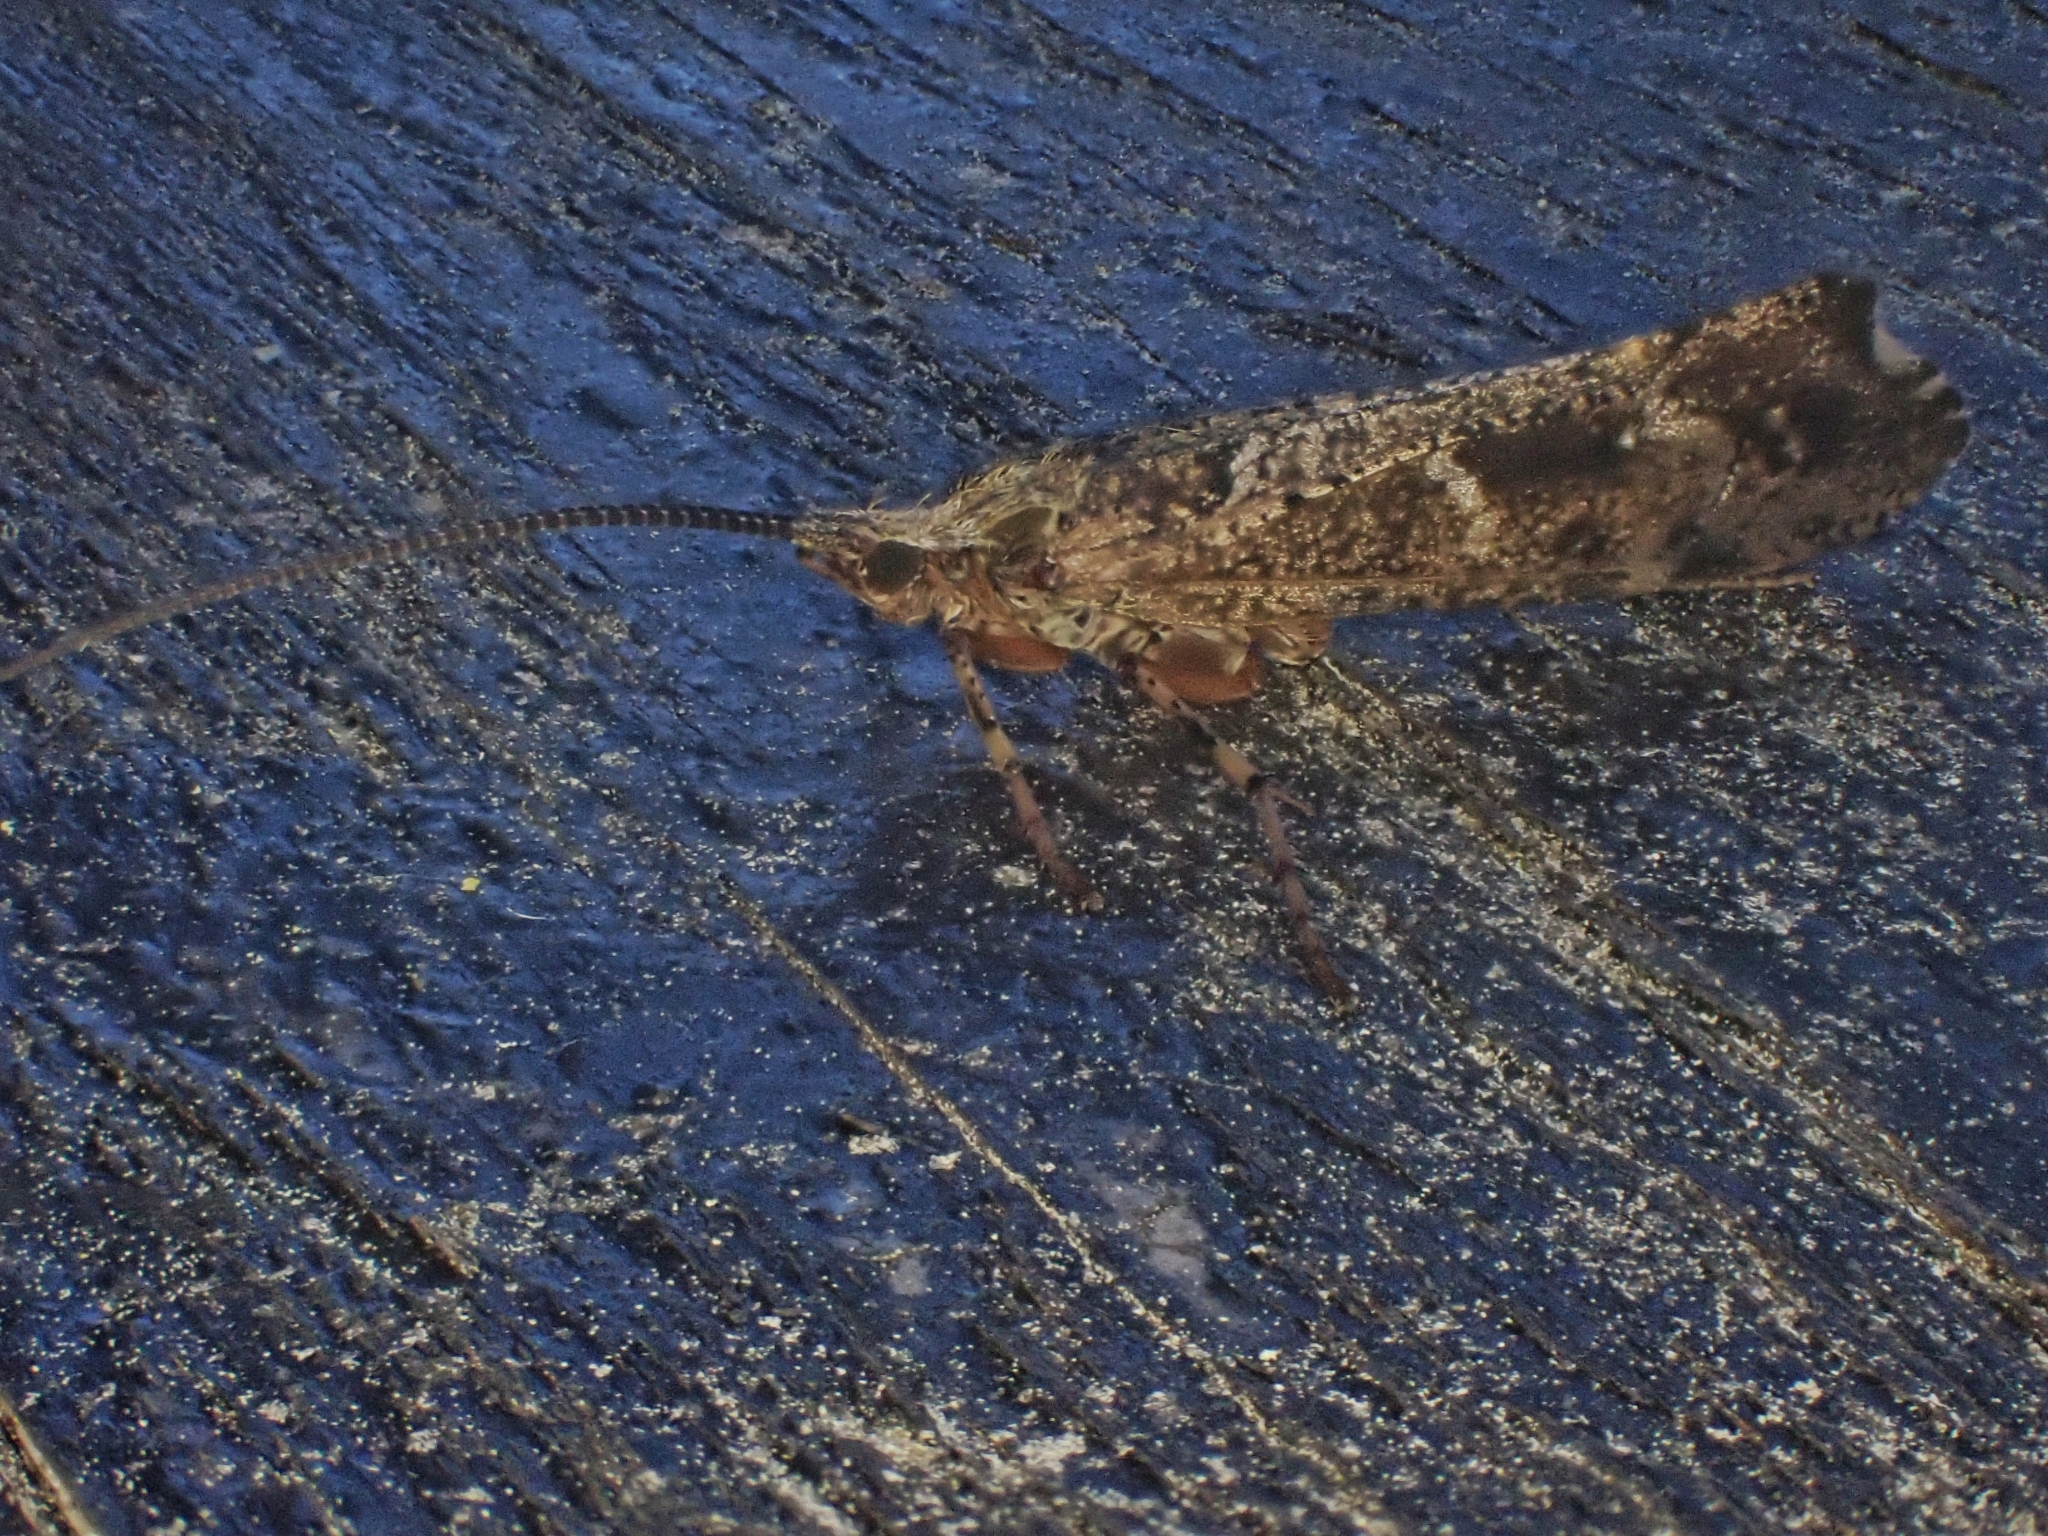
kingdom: Animalia
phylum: Arthropoda
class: Insecta
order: Trichoptera
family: Limnephilidae
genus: Glyphotaelius
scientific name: Glyphotaelius pellucidus
